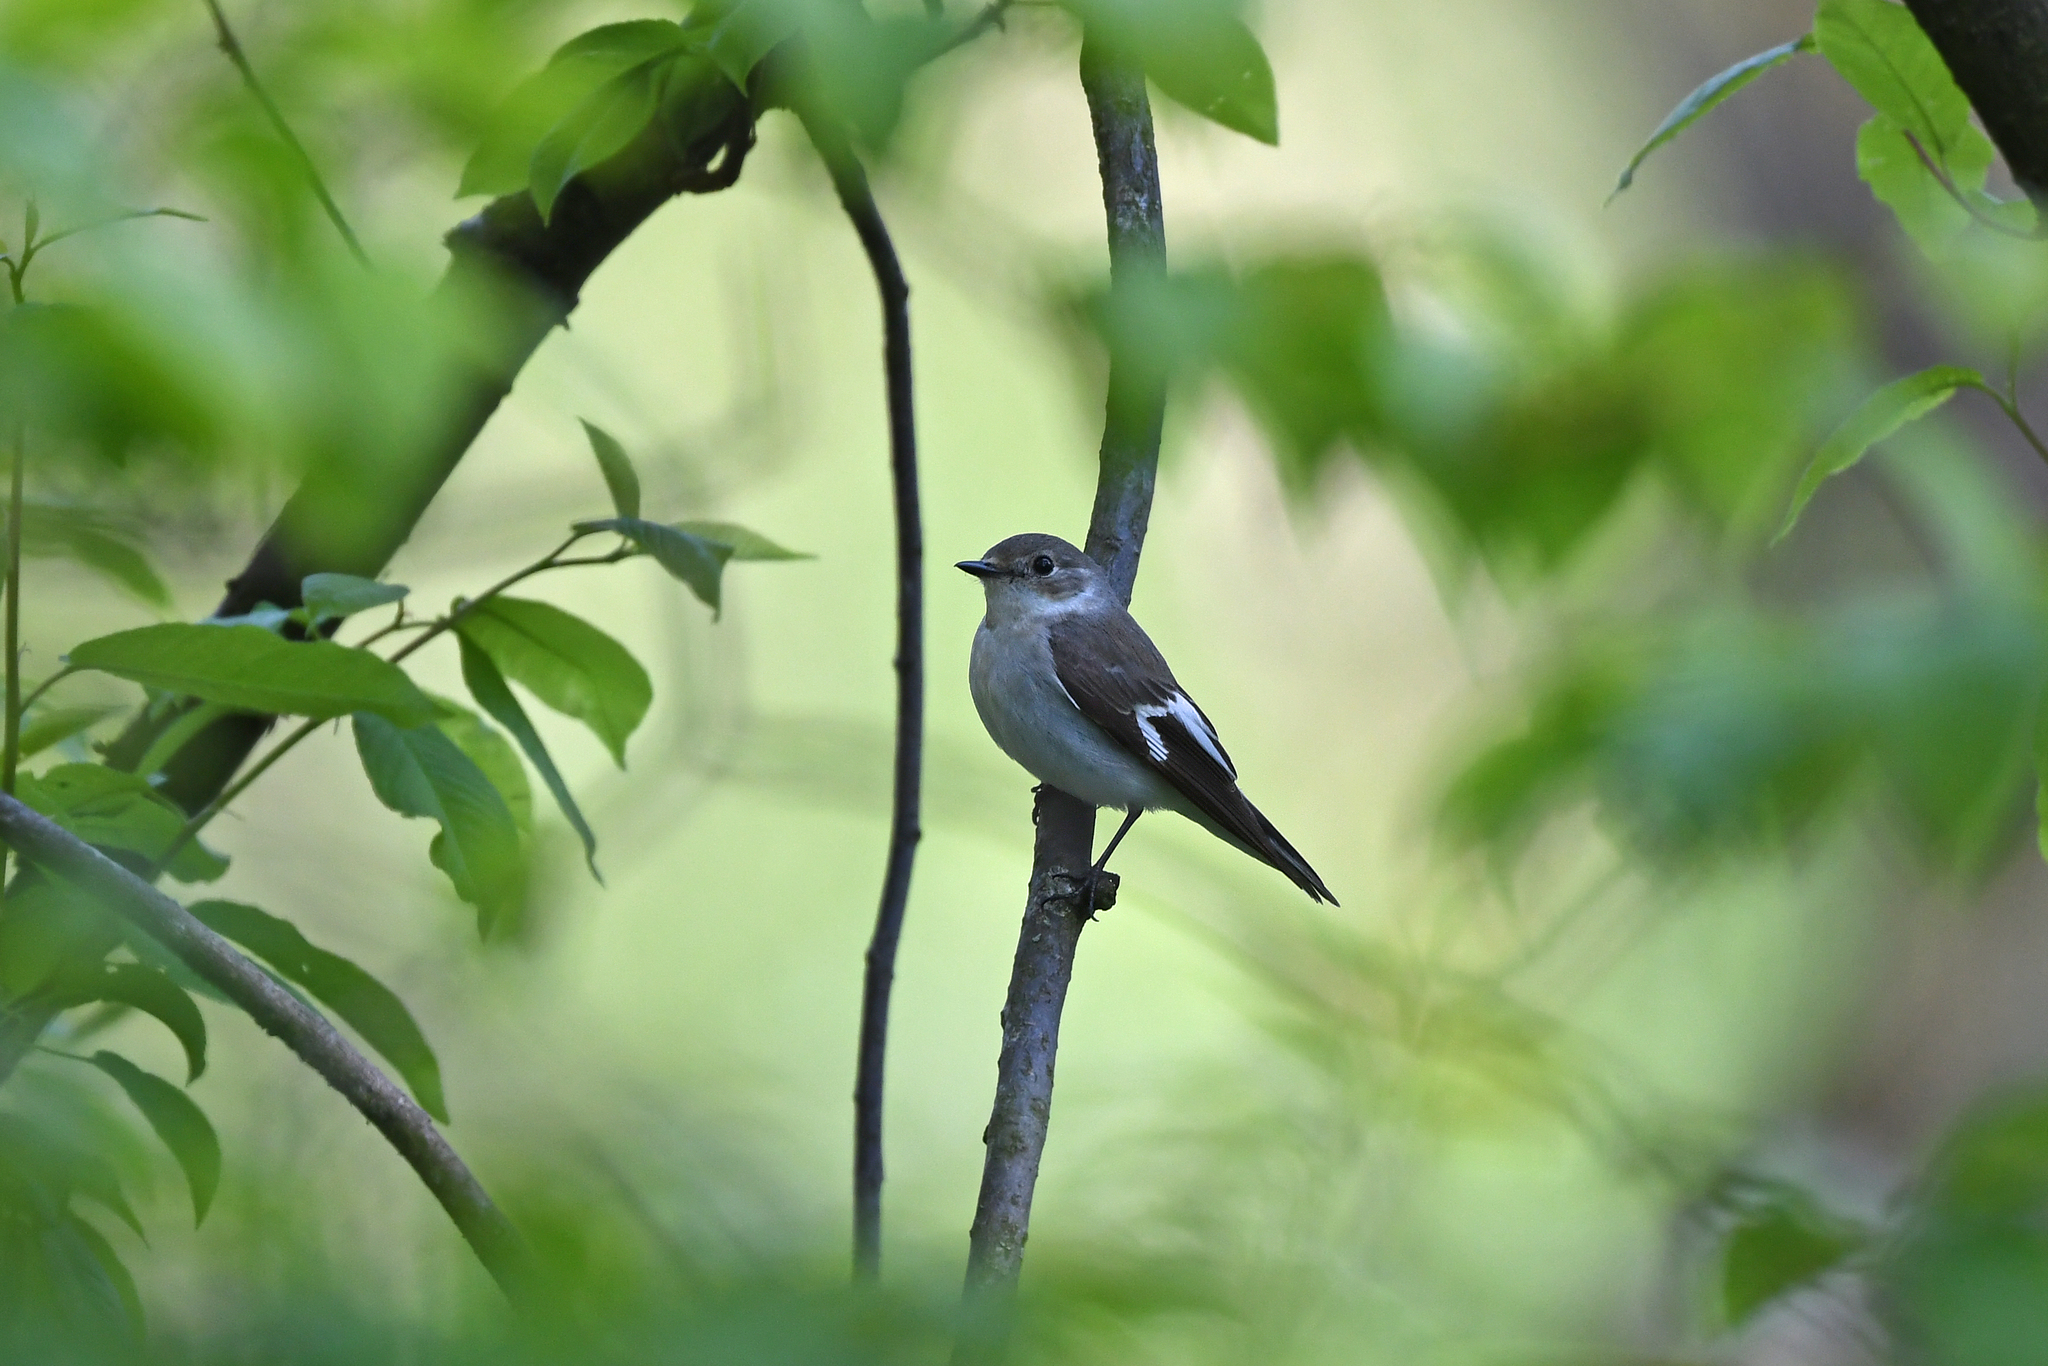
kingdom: Animalia
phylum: Chordata
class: Aves
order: Passeriformes
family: Muscicapidae
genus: Ficedula
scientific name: Ficedula albicollis
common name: Collared flycatcher
